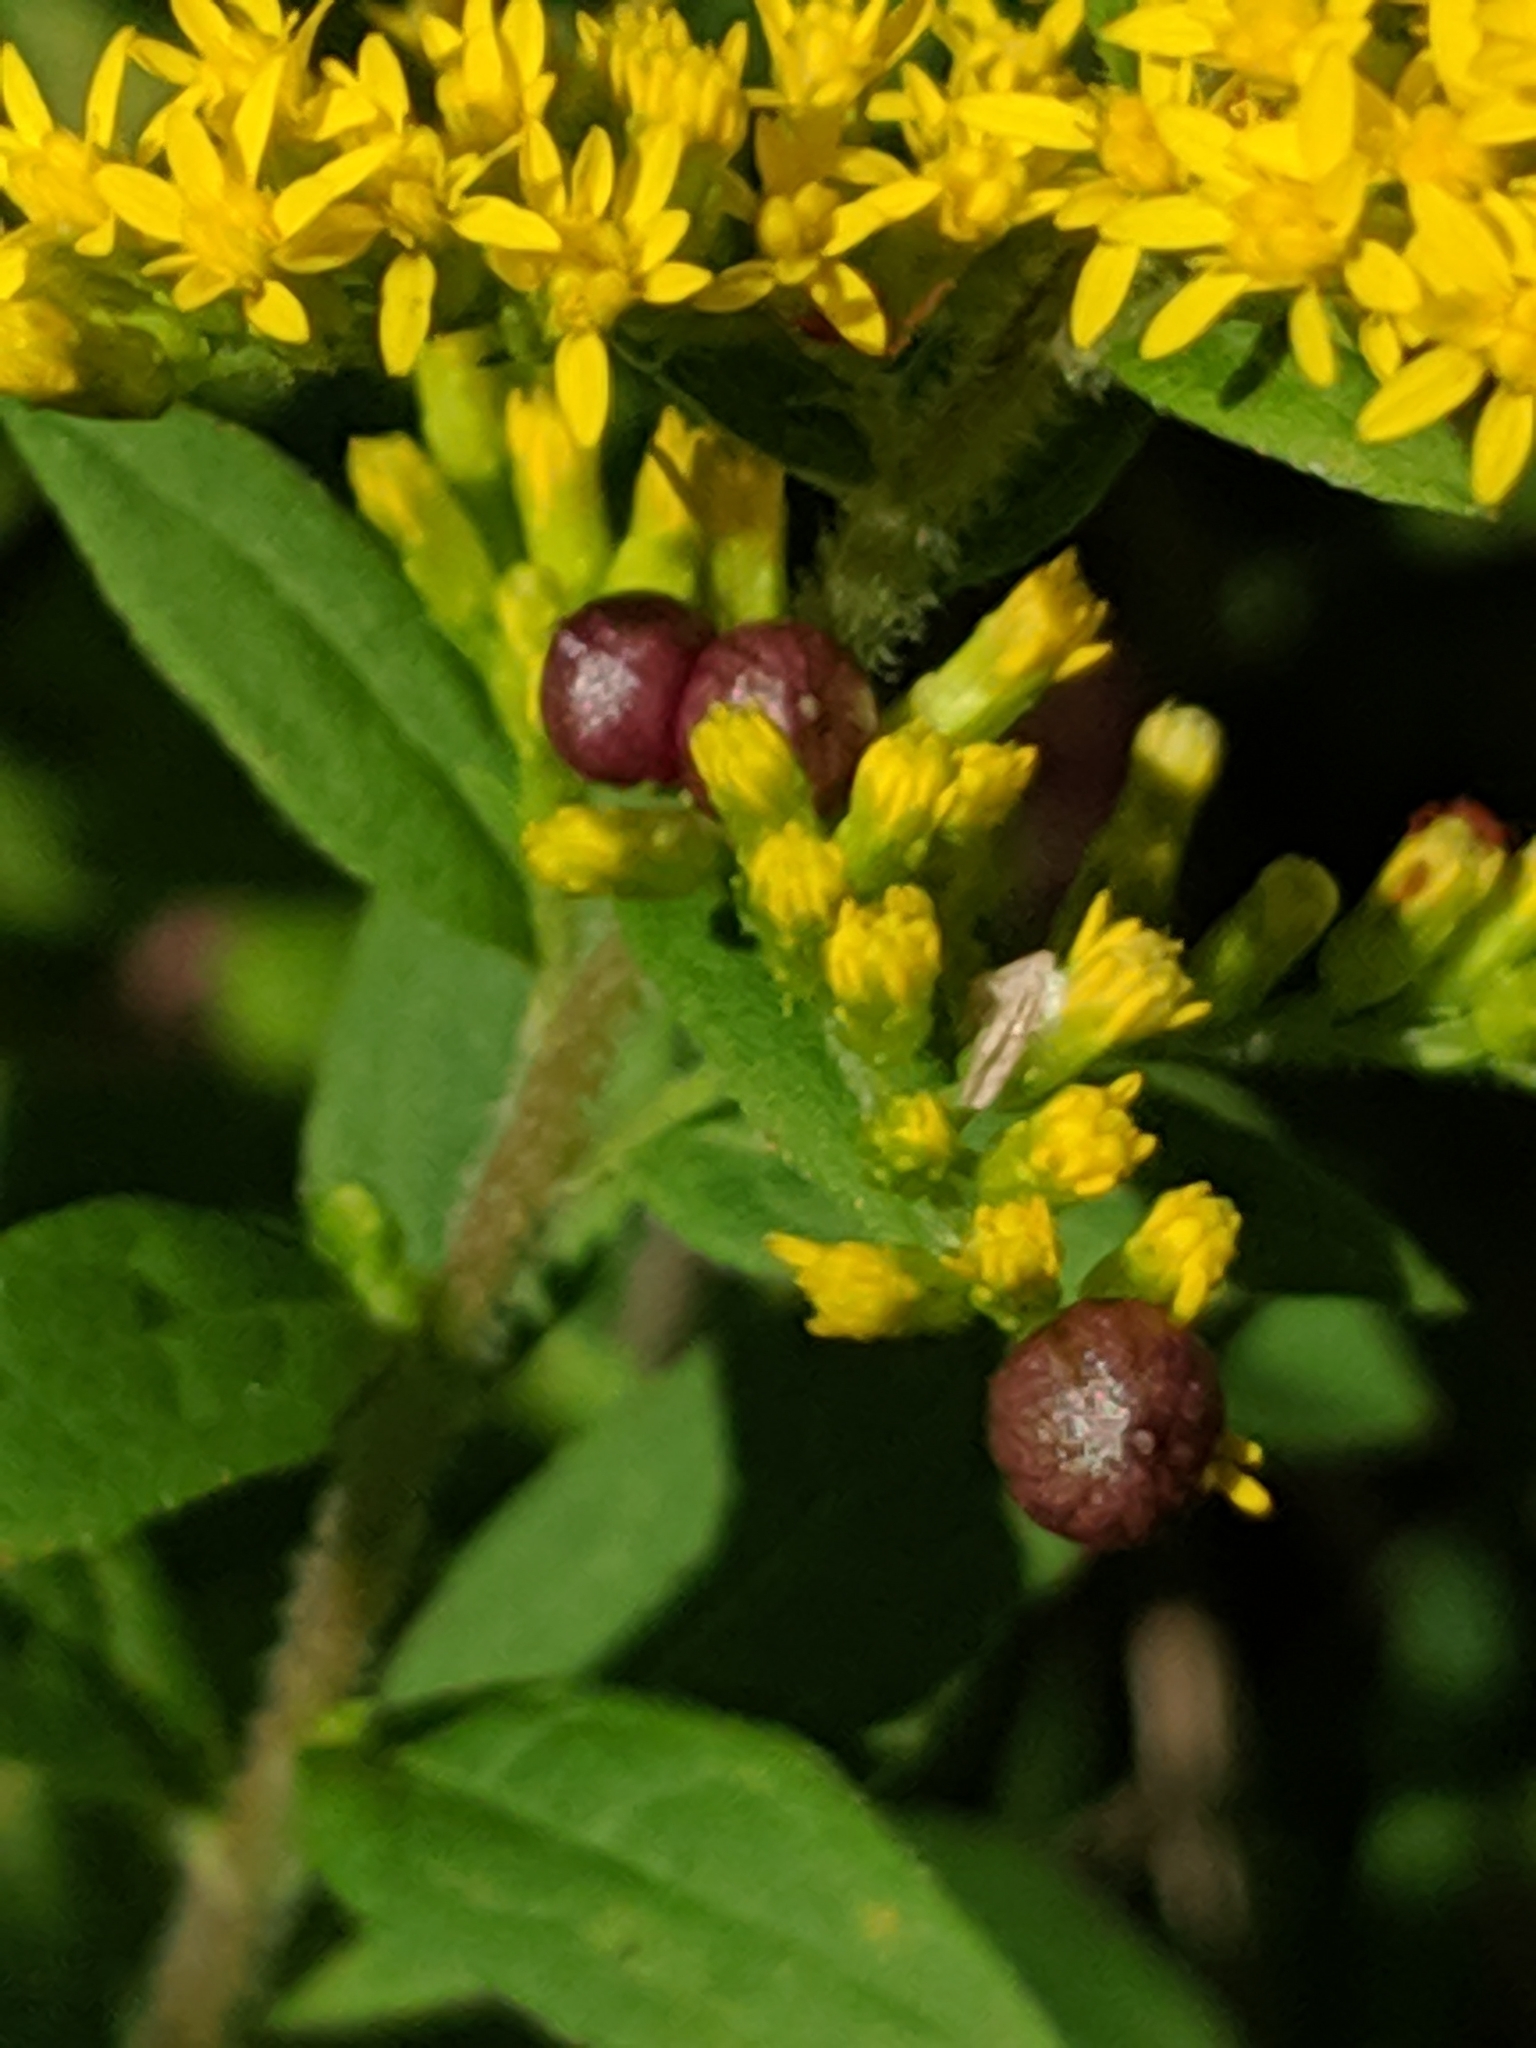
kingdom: Animalia
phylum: Arthropoda
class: Insecta
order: Diptera
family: Cecidomyiidae
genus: Schizomyia
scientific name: Schizomyia racemicola
